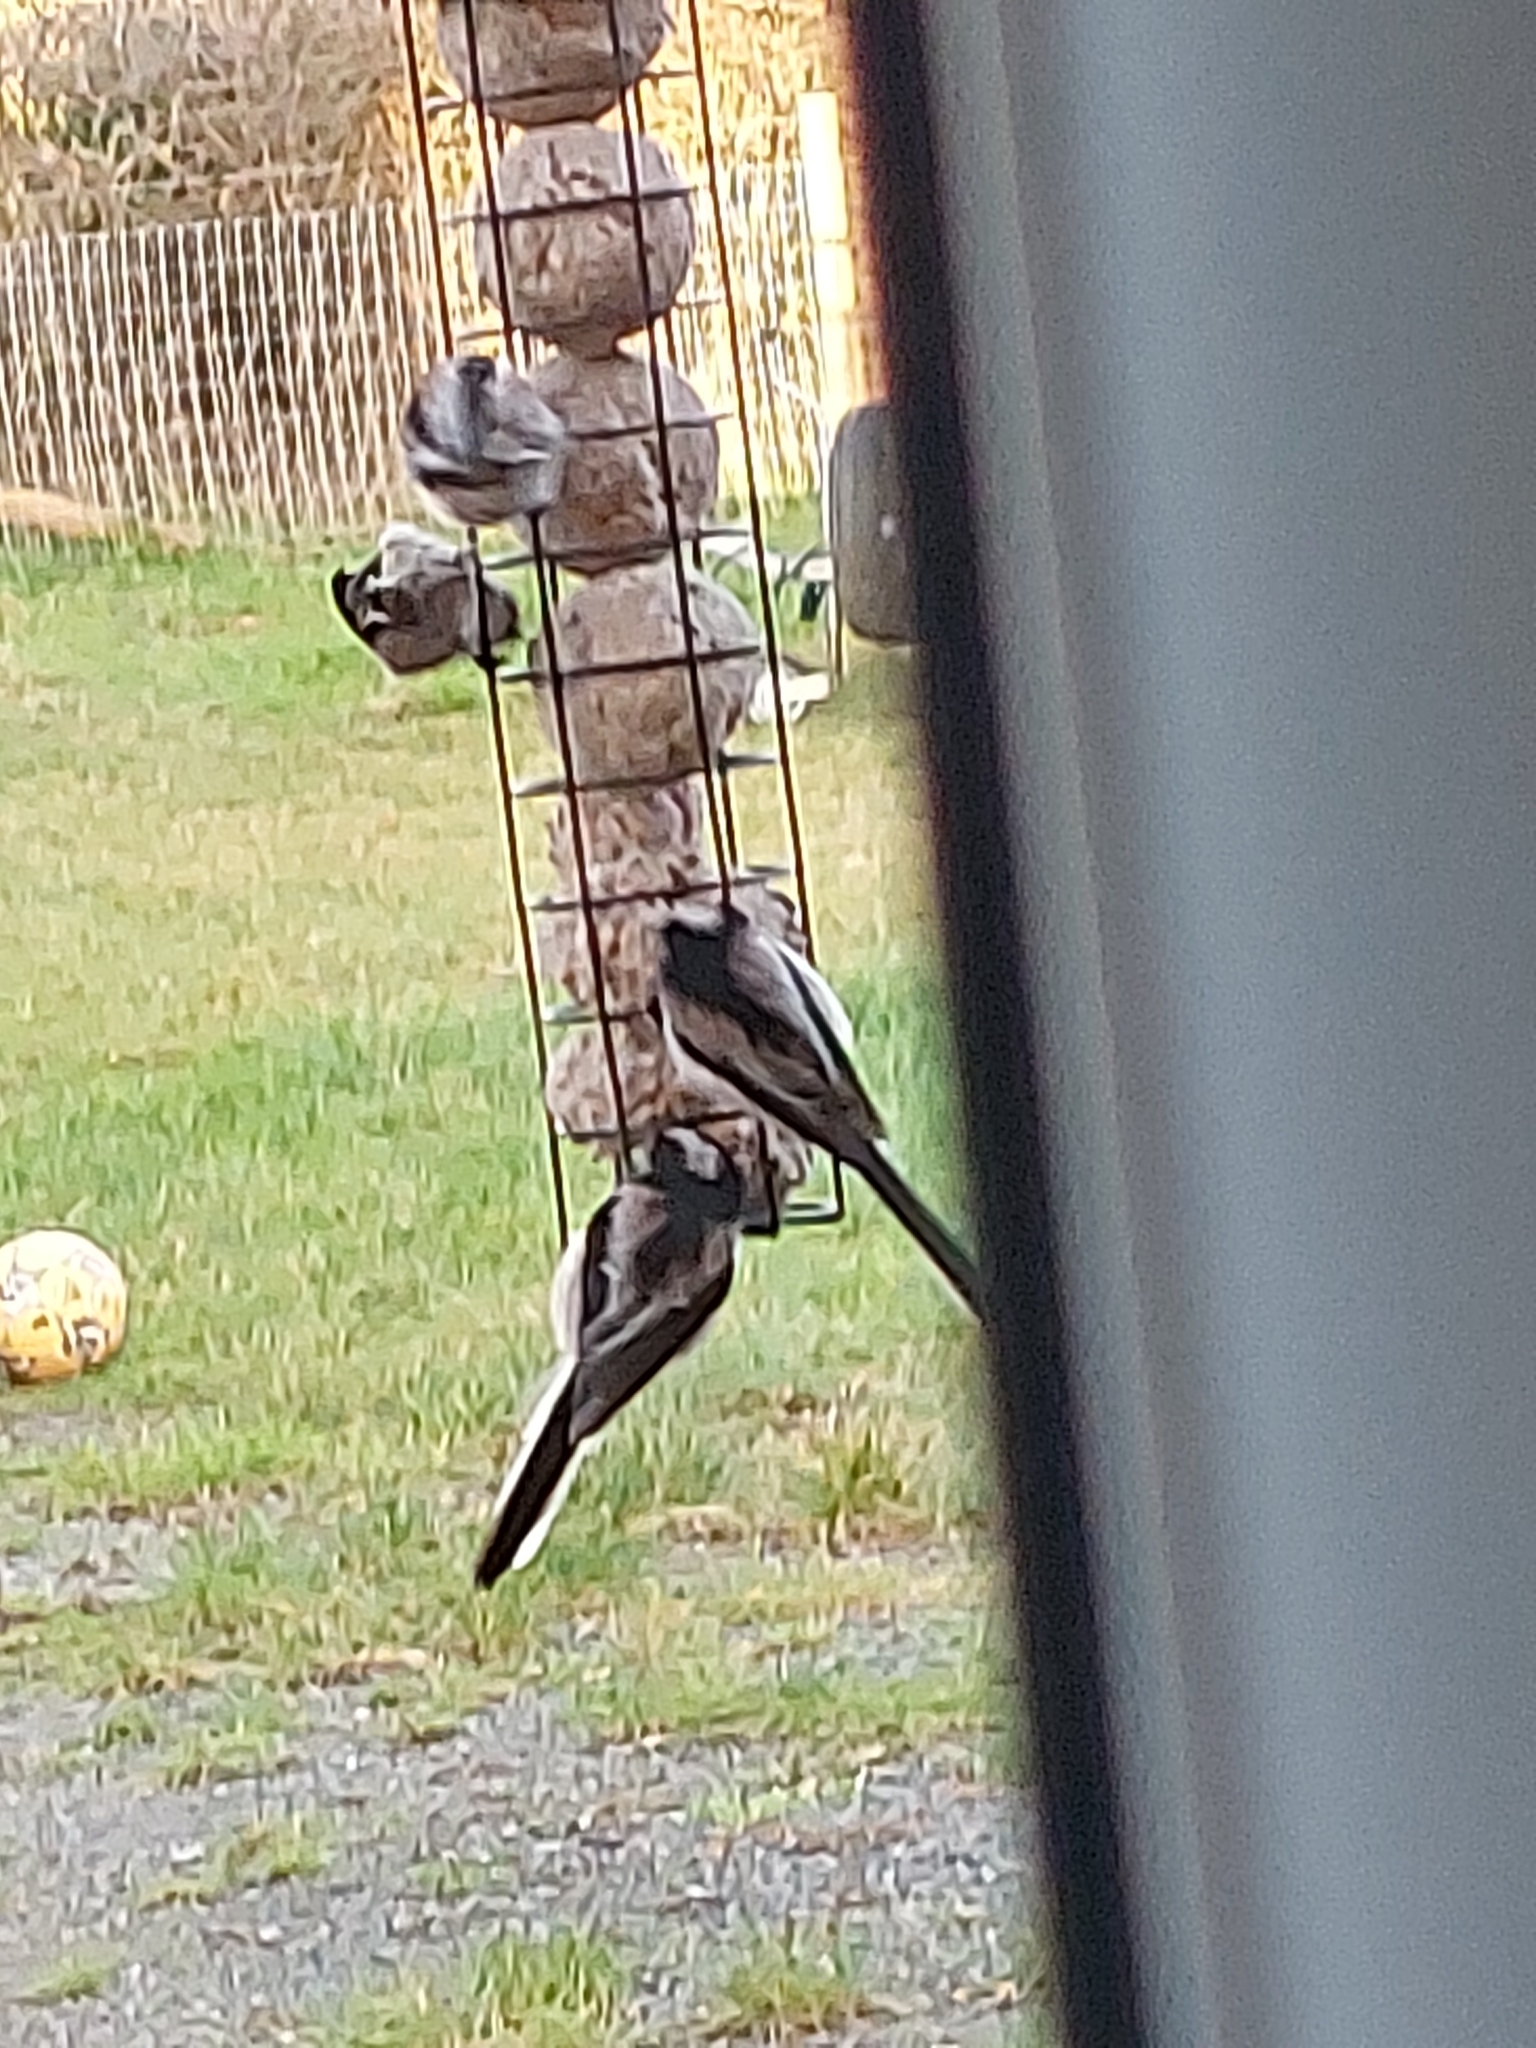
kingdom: Animalia
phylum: Chordata
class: Aves
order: Passeriformes
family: Aegithalidae
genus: Aegithalos
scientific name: Aegithalos caudatus
